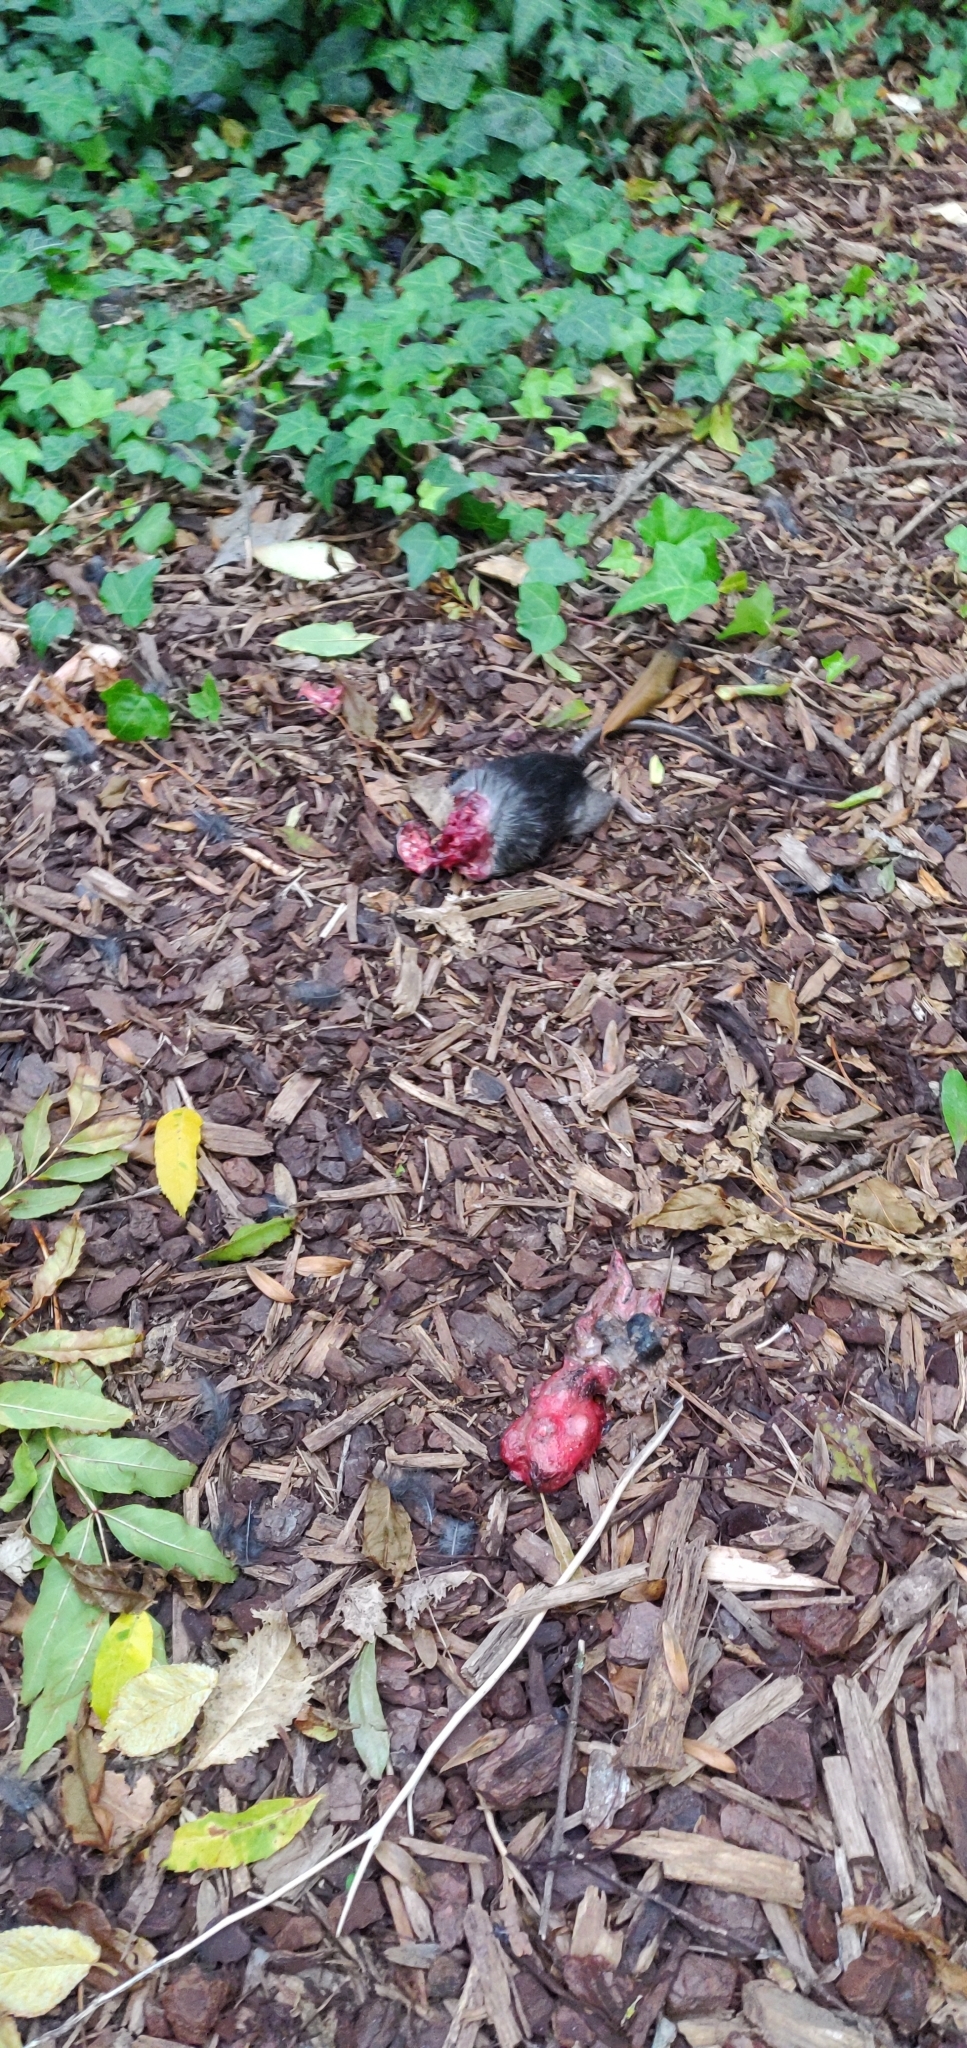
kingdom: Animalia
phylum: Chordata
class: Mammalia
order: Rodentia
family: Muridae
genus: Rattus
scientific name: Rattus rattus
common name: Black rat
